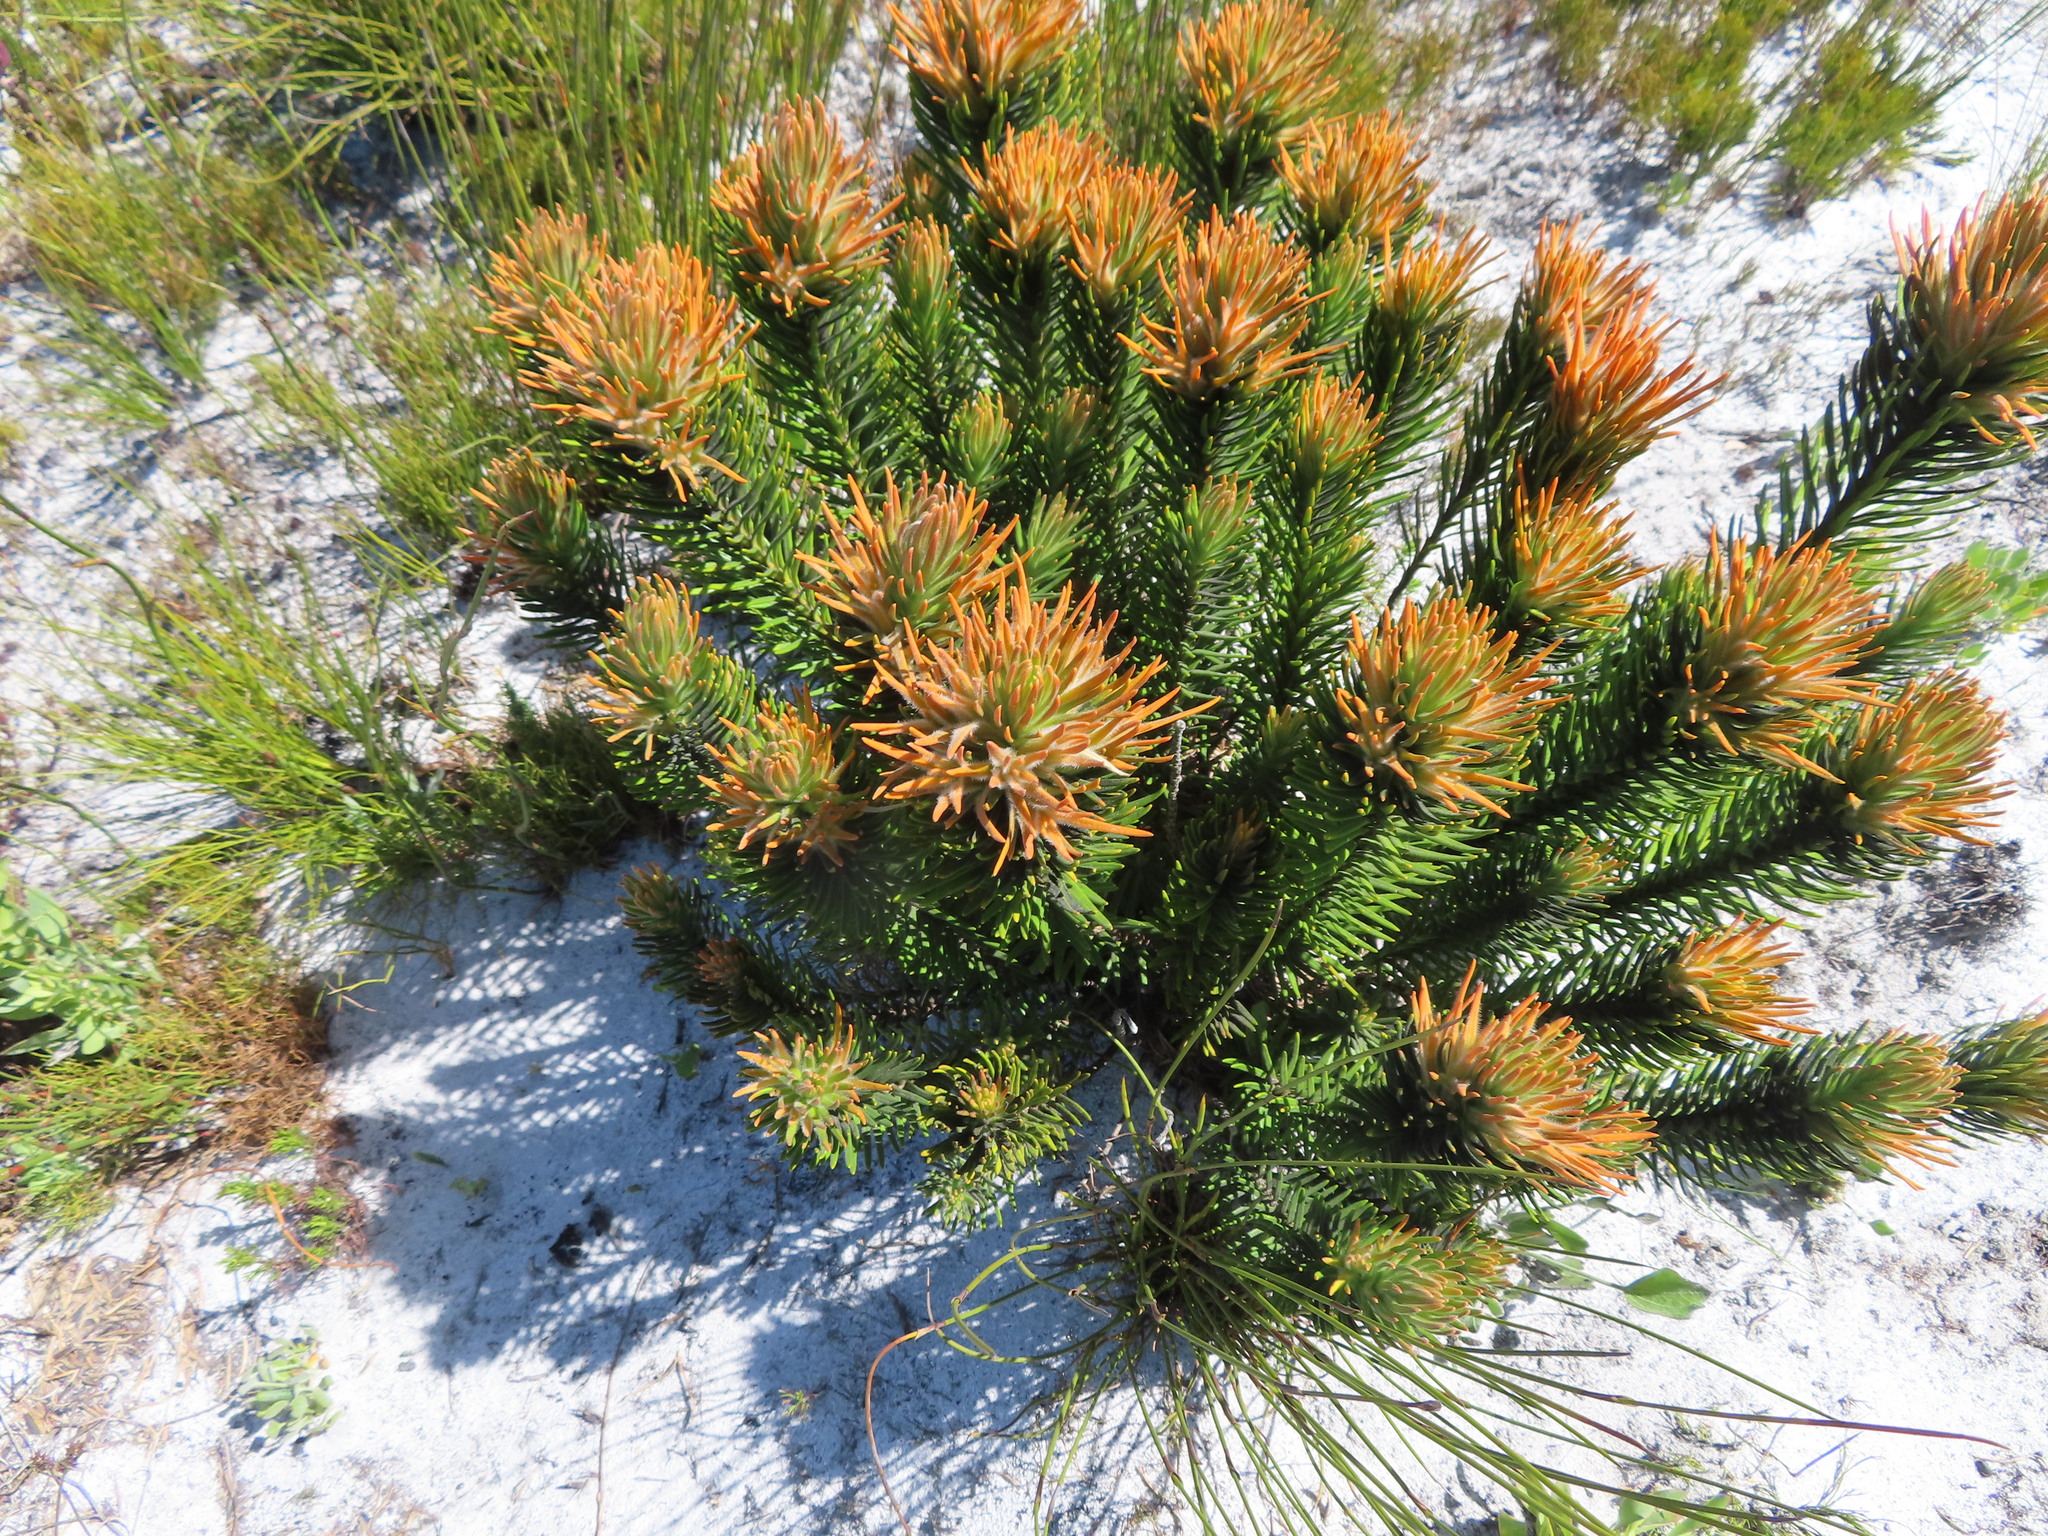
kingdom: Plantae
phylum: Tracheophyta
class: Magnoliopsida
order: Lamiales
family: Stilbaceae
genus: Retzia
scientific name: Retzia capensis
